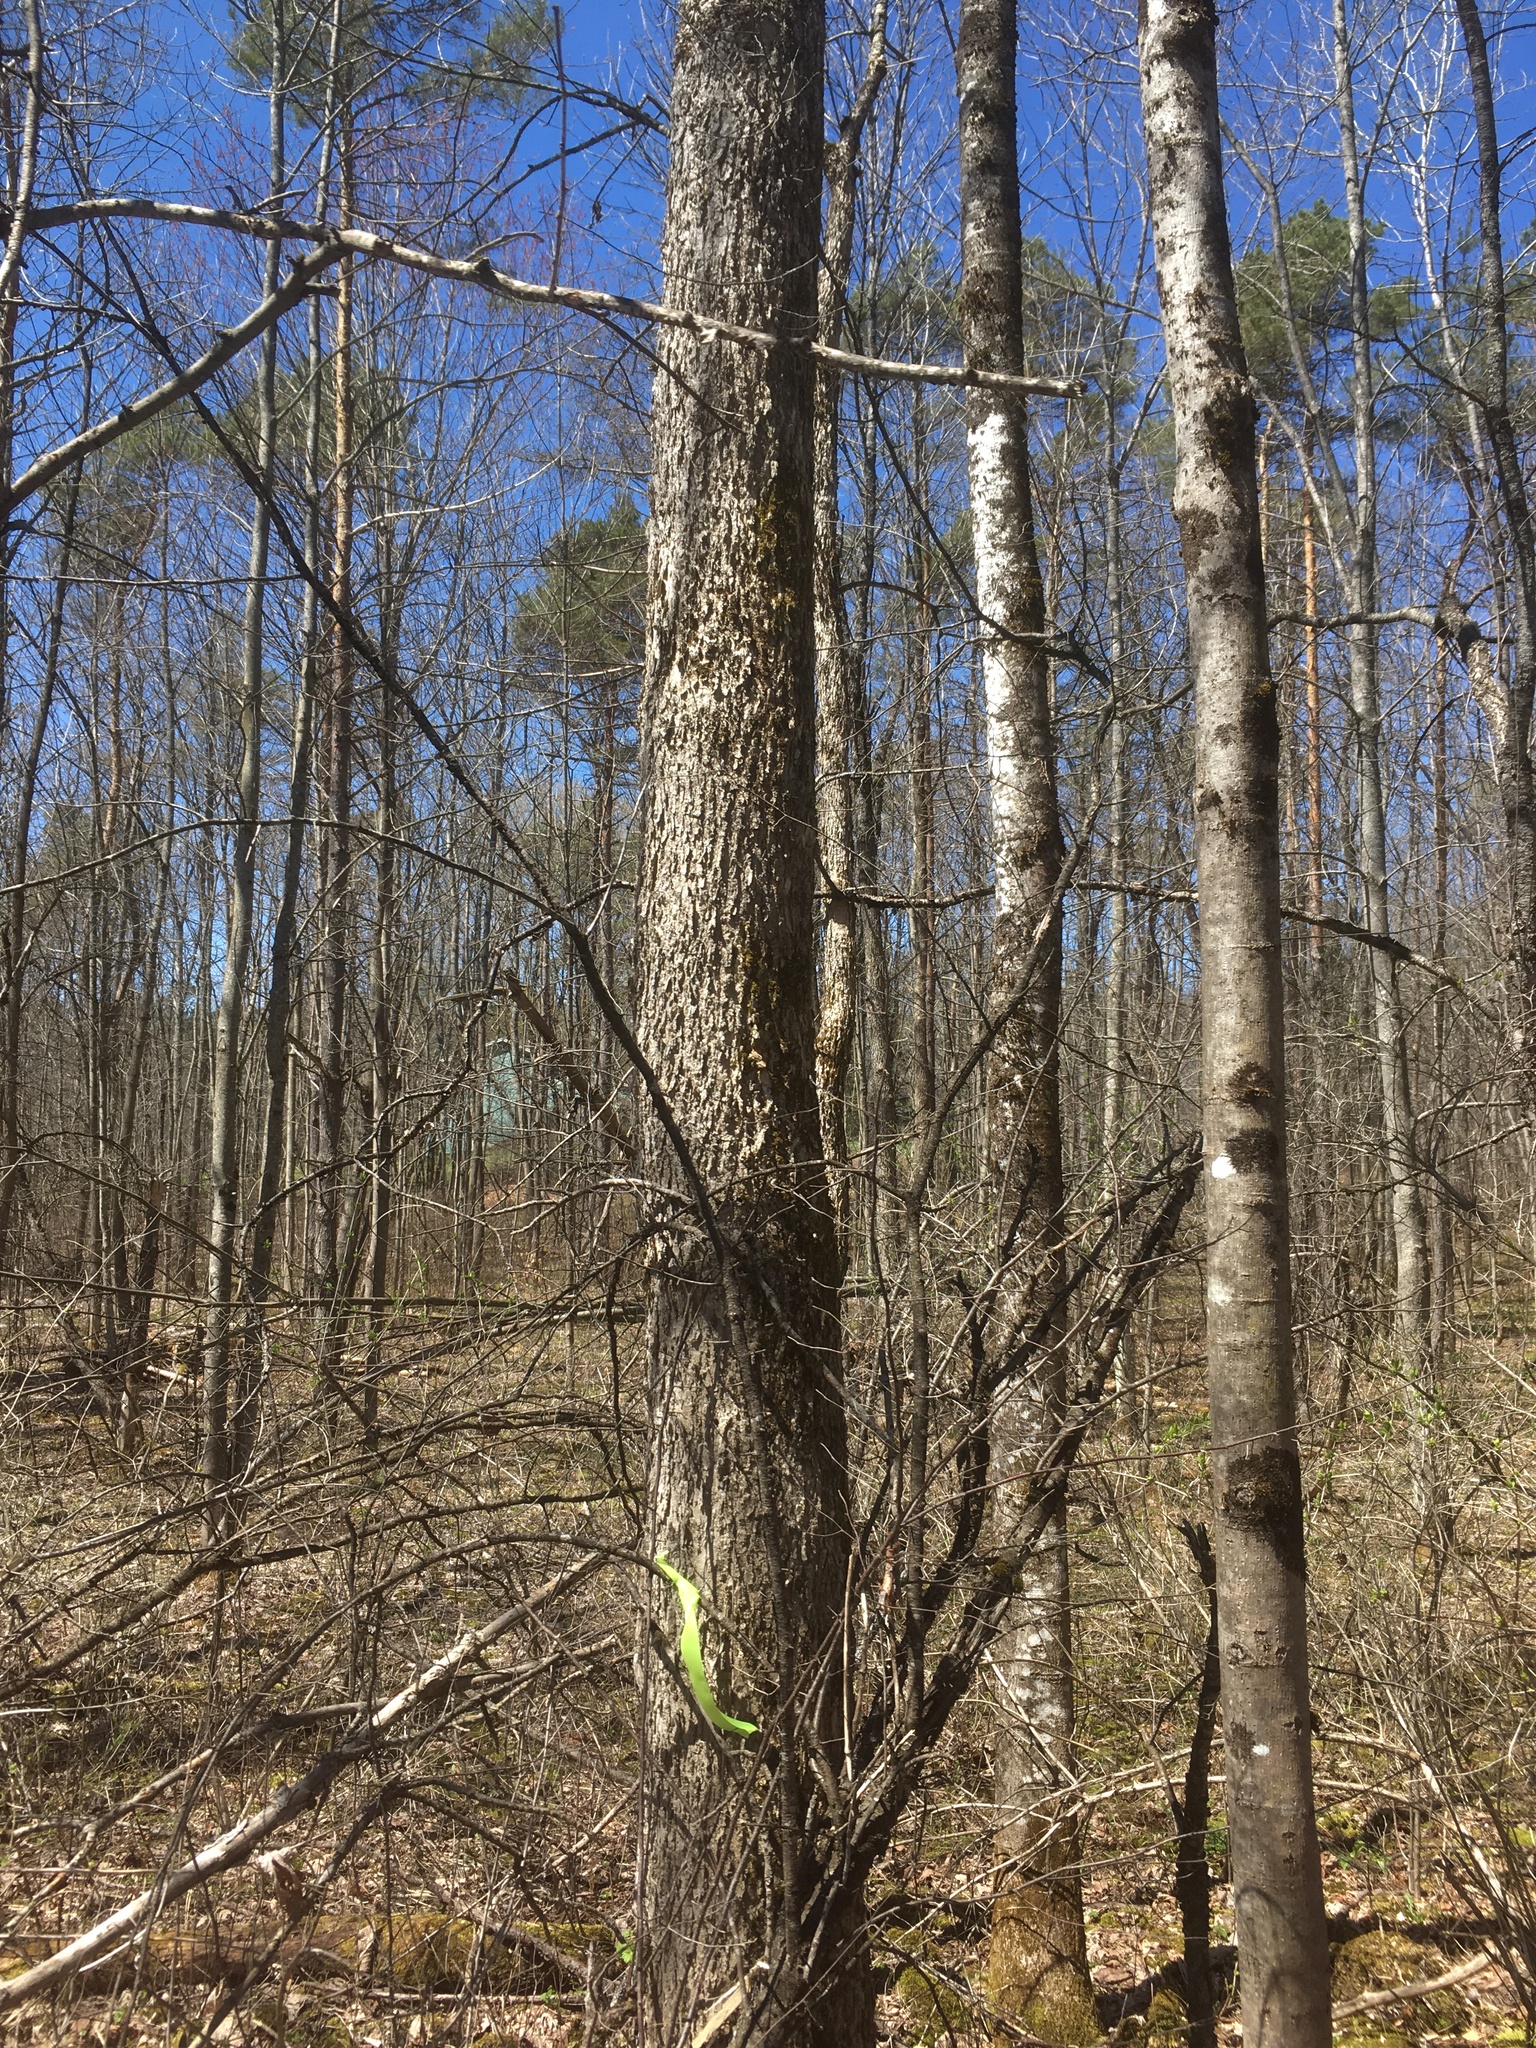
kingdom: Plantae
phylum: Tracheophyta
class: Magnoliopsida
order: Lamiales
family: Oleaceae
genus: Fraxinus
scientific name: Fraxinus nigra
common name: Black ash
